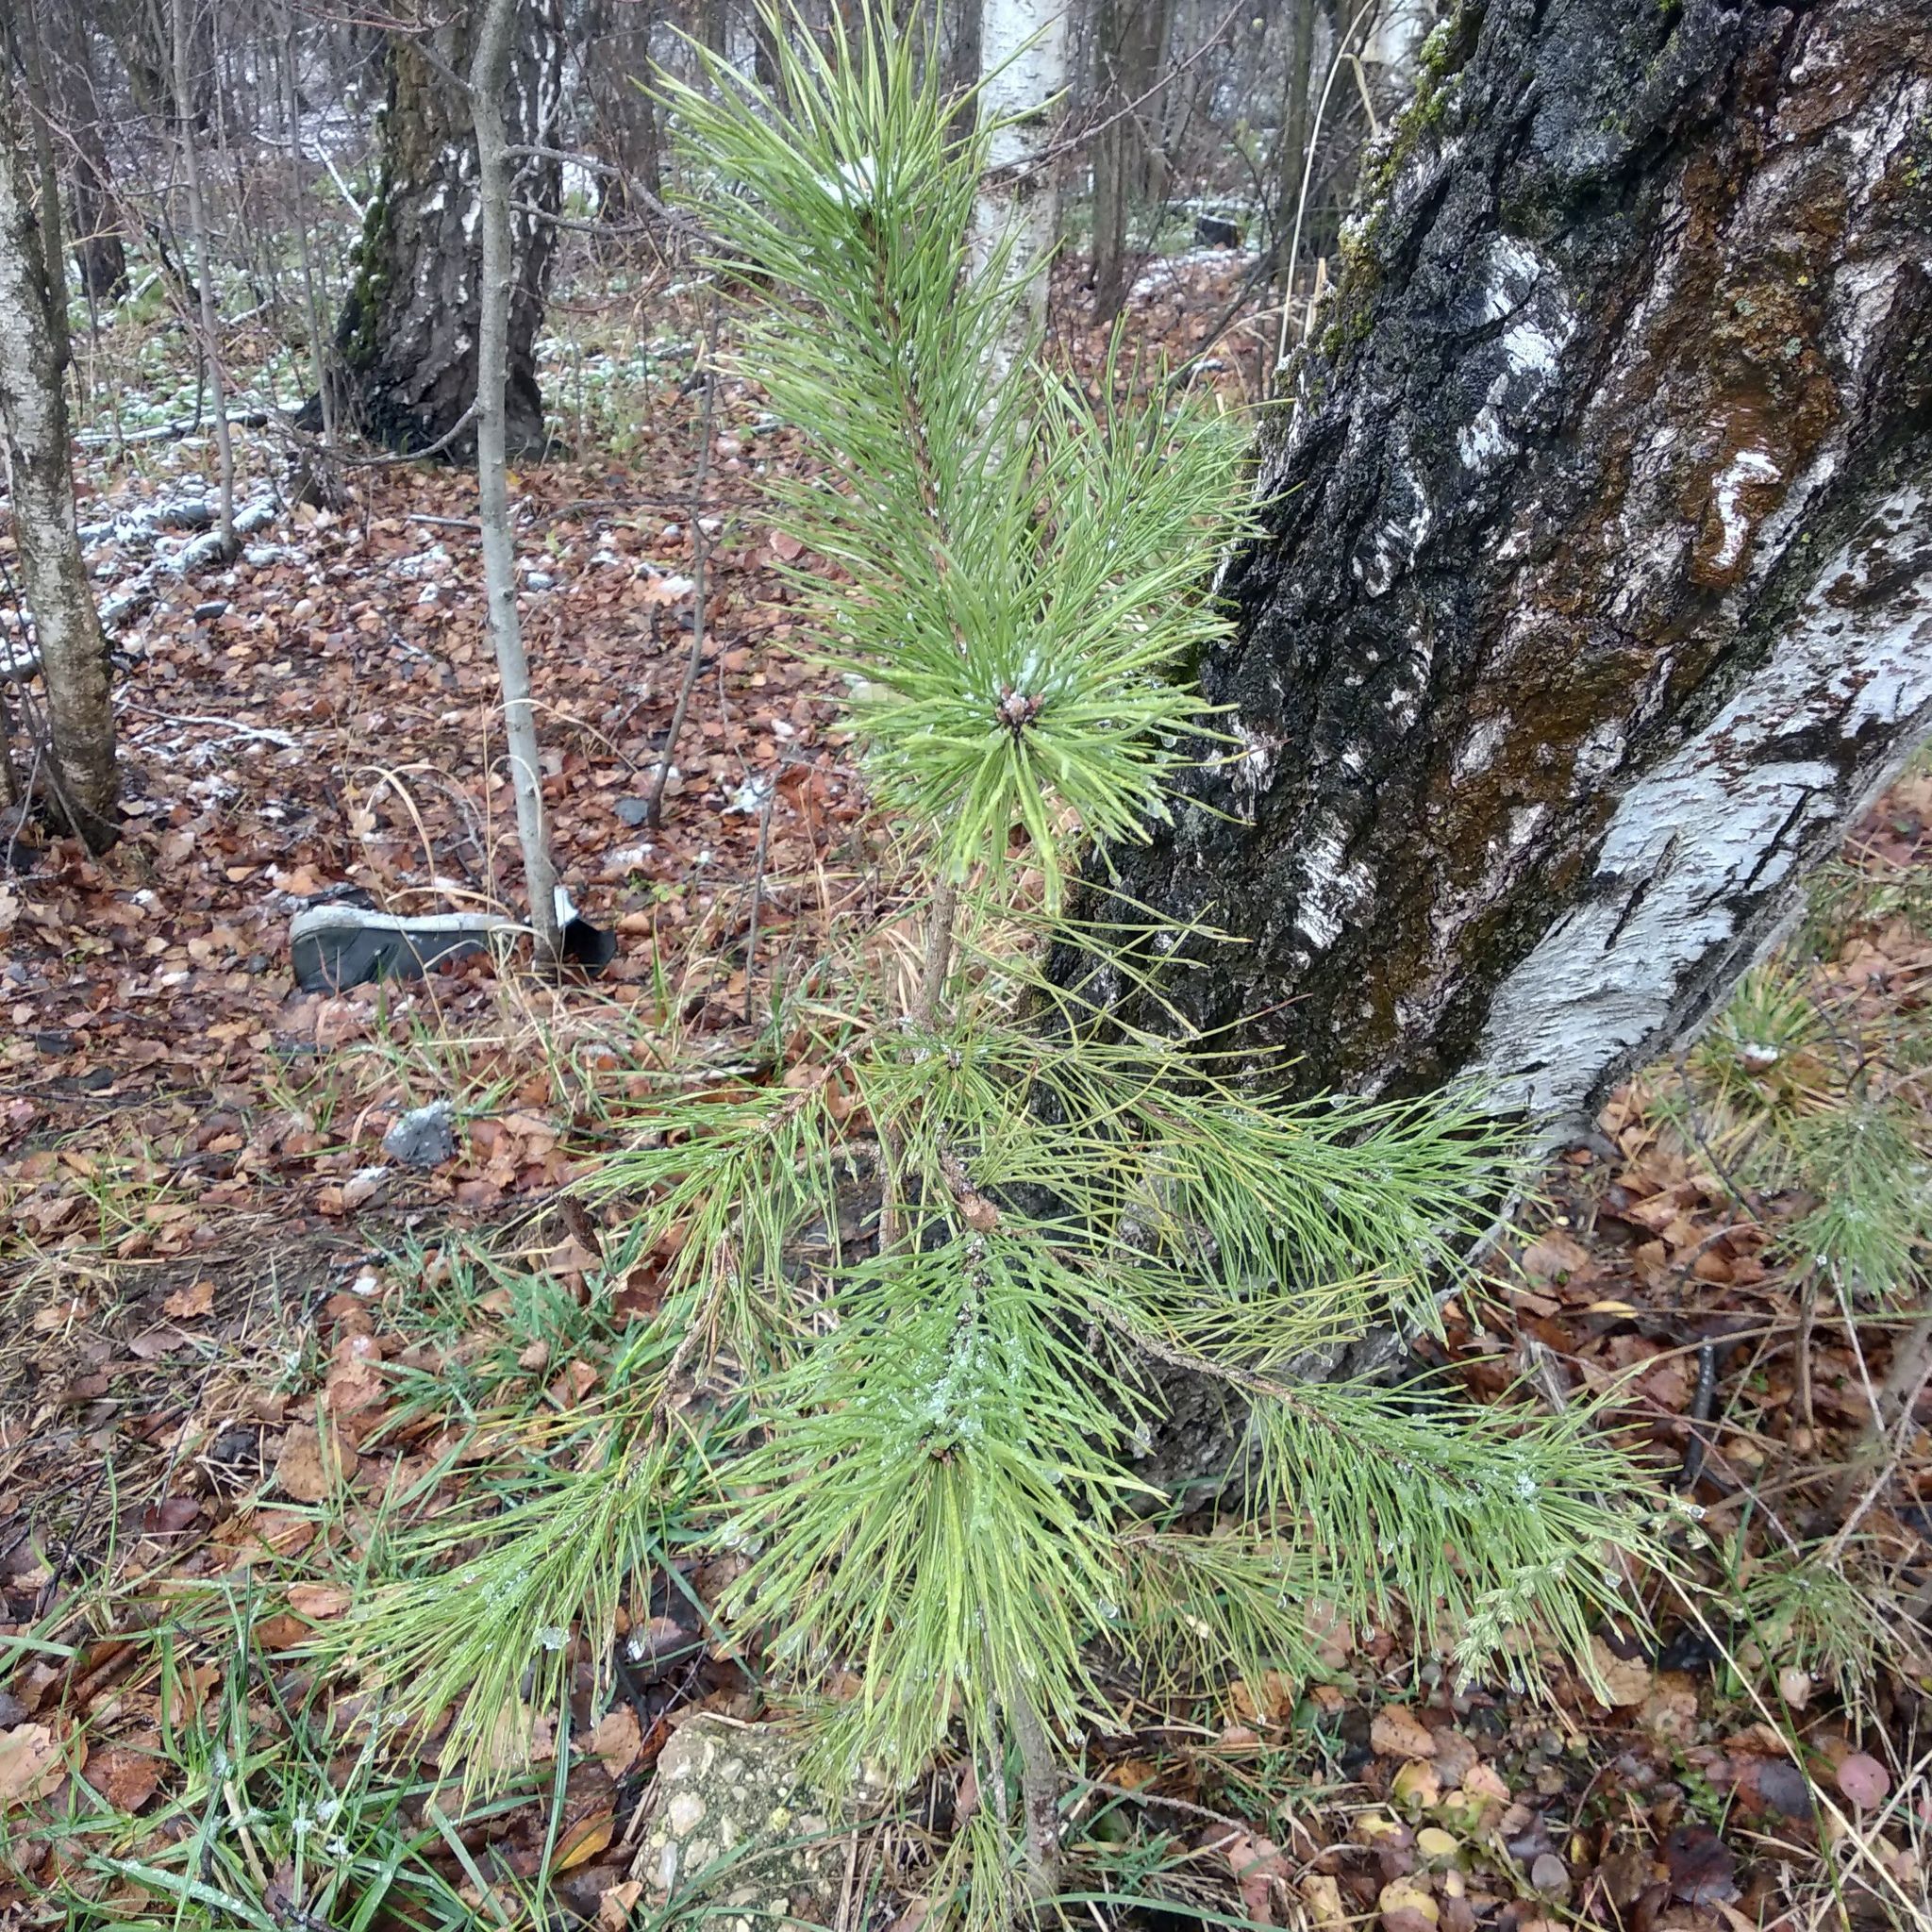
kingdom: Plantae
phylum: Tracheophyta
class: Pinopsida
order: Pinales
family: Pinaceae
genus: Pinus
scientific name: Pinus sylvestris
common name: Scots pine
